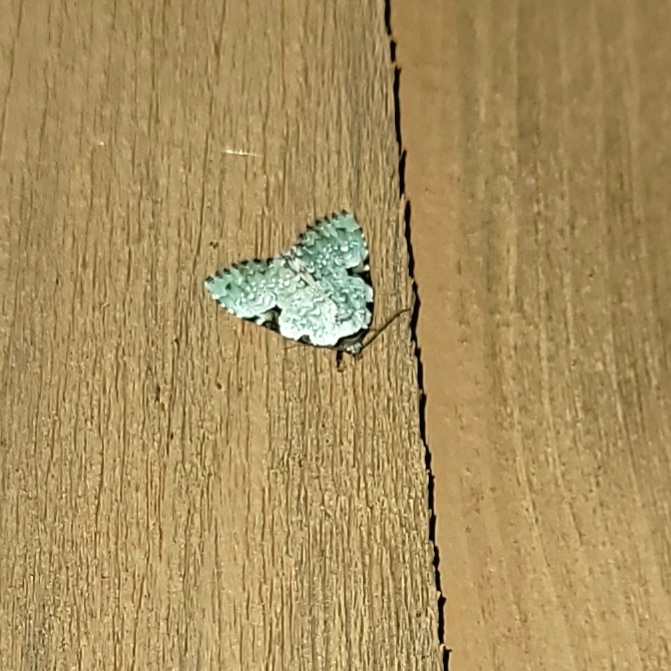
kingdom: Animalia
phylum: Arthropoda
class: Insecta
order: Lepidoptera
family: Noctuidae
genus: Leuconycta
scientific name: Leuconycta diphteroides
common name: Green leuconycta moth
